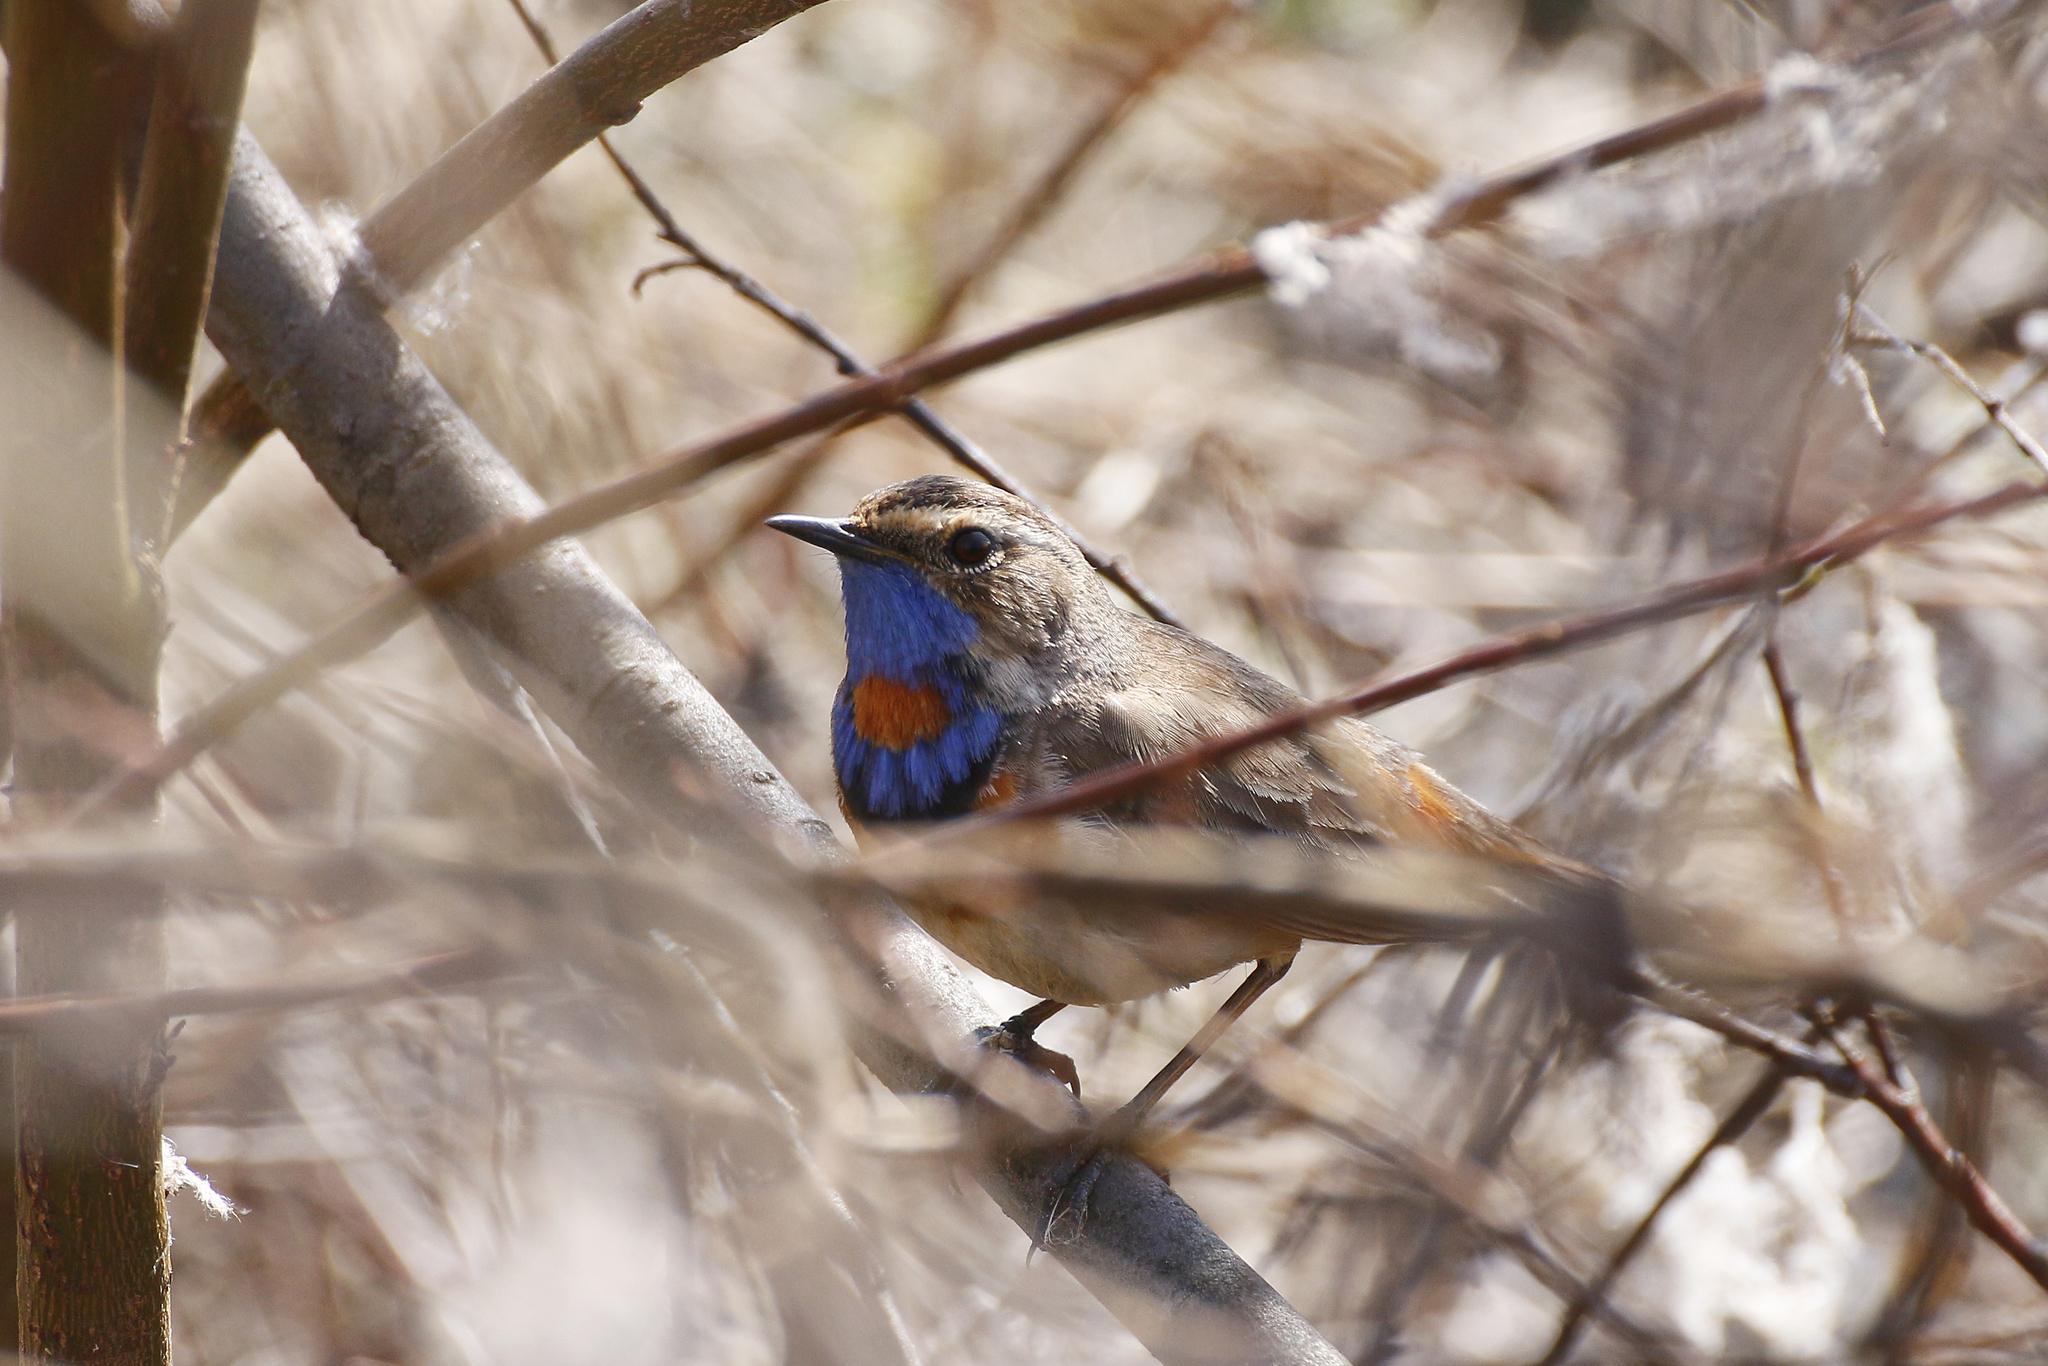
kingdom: Animalia
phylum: Chordata
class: Aves
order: Passeriformes
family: Muscicapidae
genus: Luscinia
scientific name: Luscinia svecica
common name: Bluethroat
